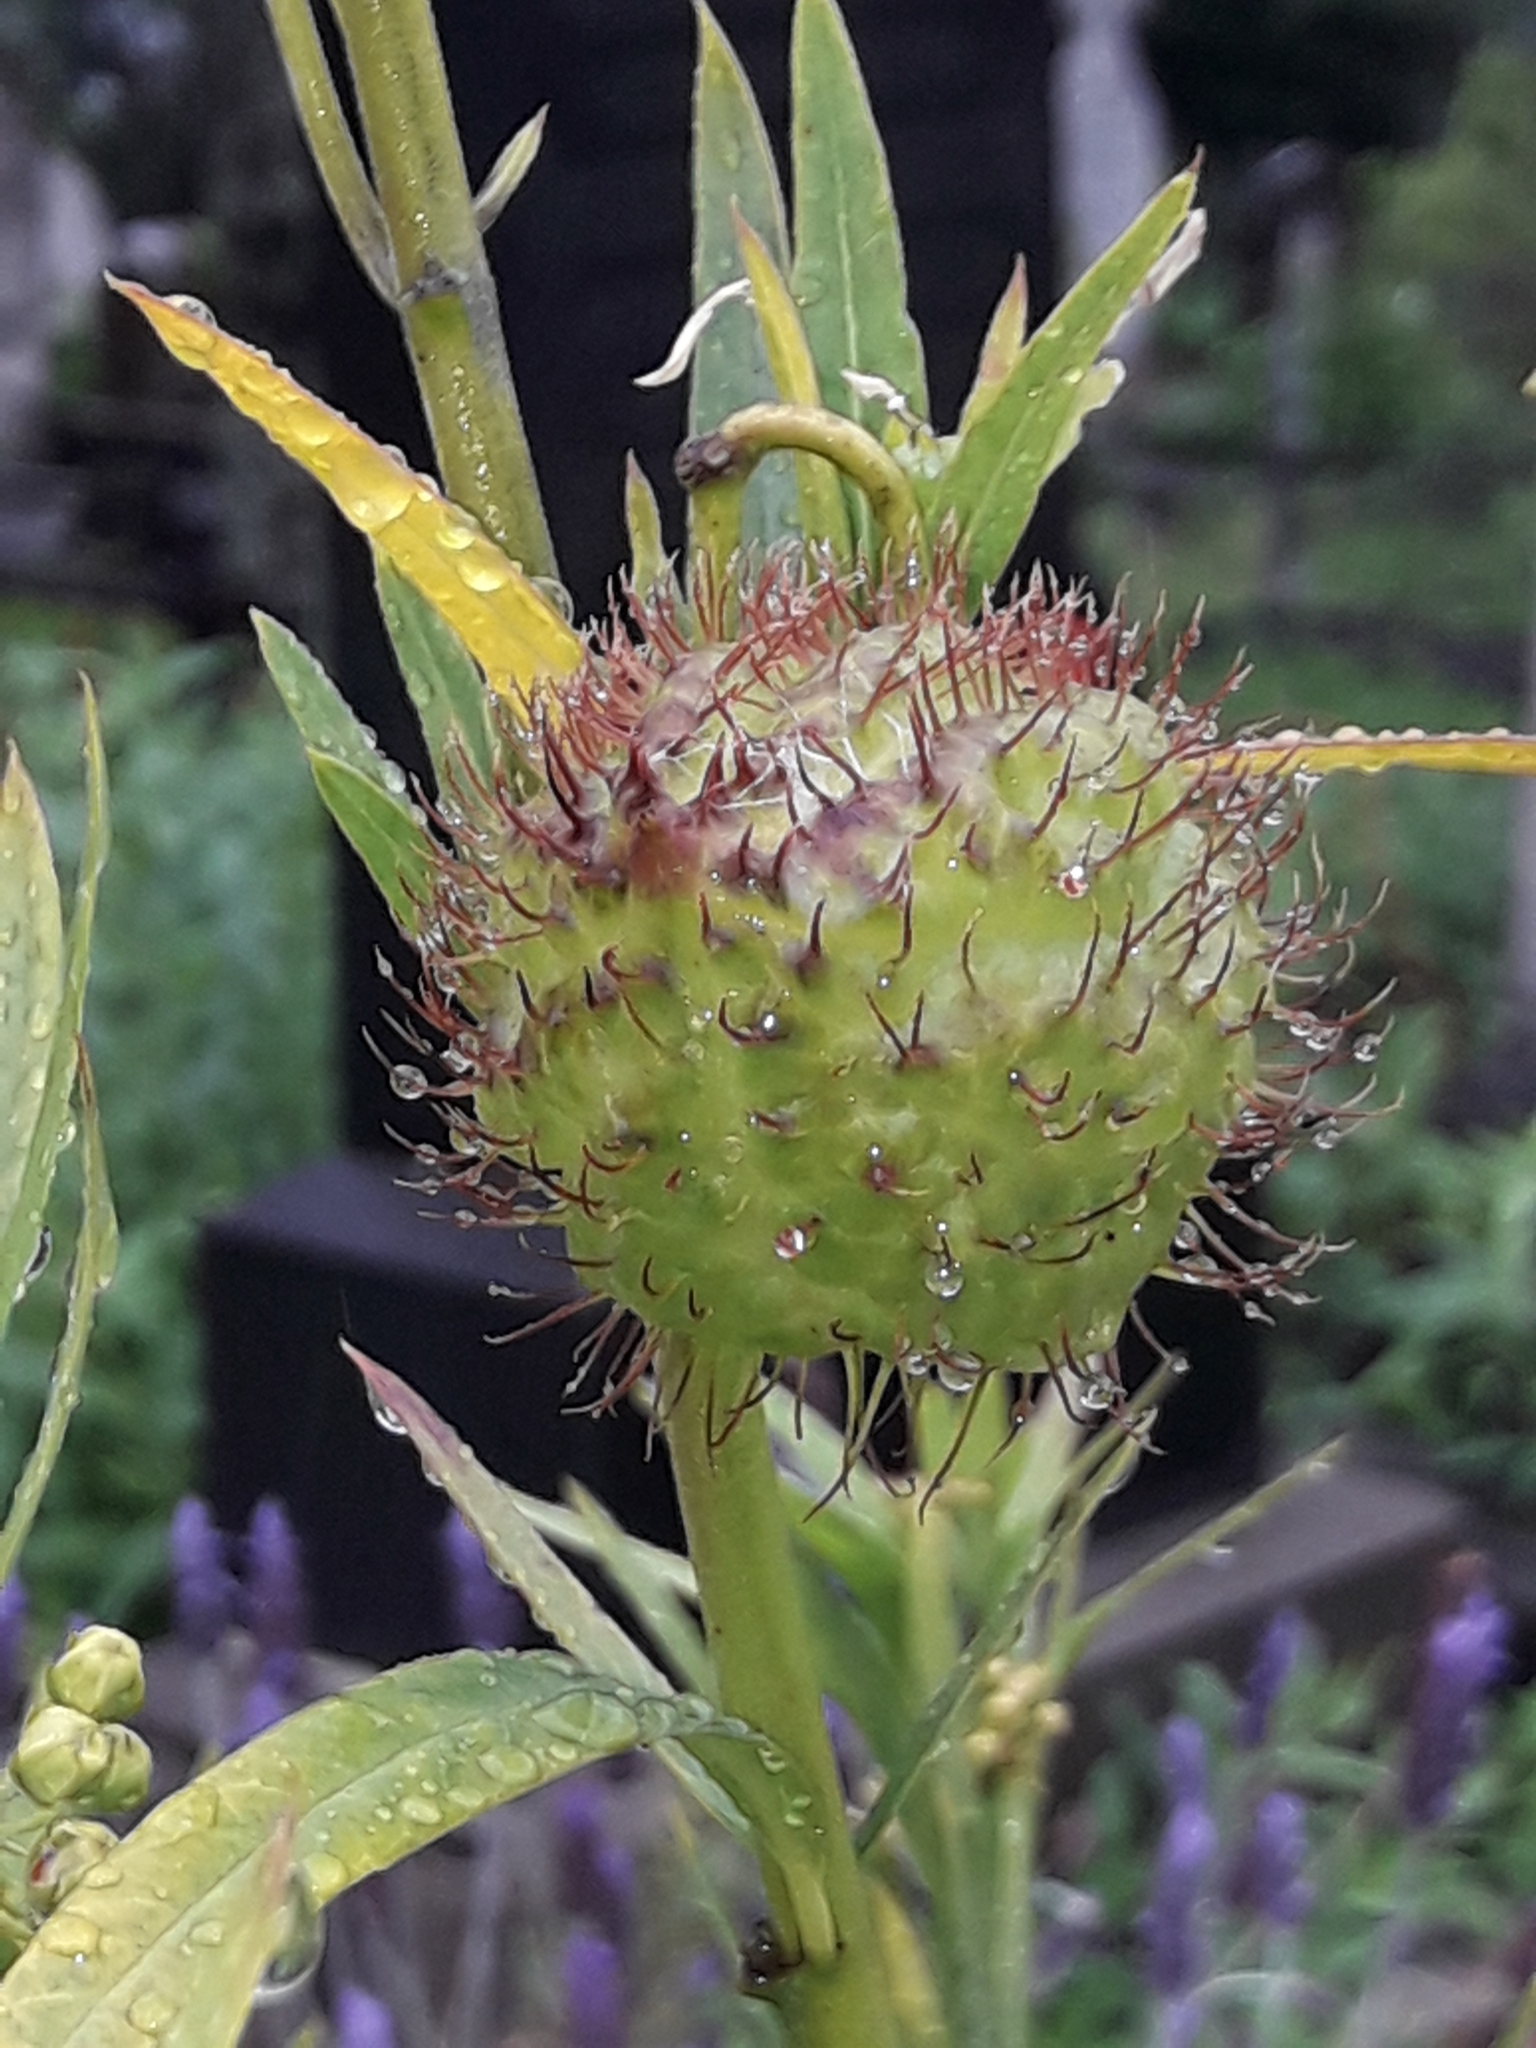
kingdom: Plantae
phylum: Tracheophyta
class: Magnoliopsida
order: Gentianales
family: Apocynaceae
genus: Gomphocarpus
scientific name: Gomphocarpus physocarpus
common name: Balloon cotton bush
